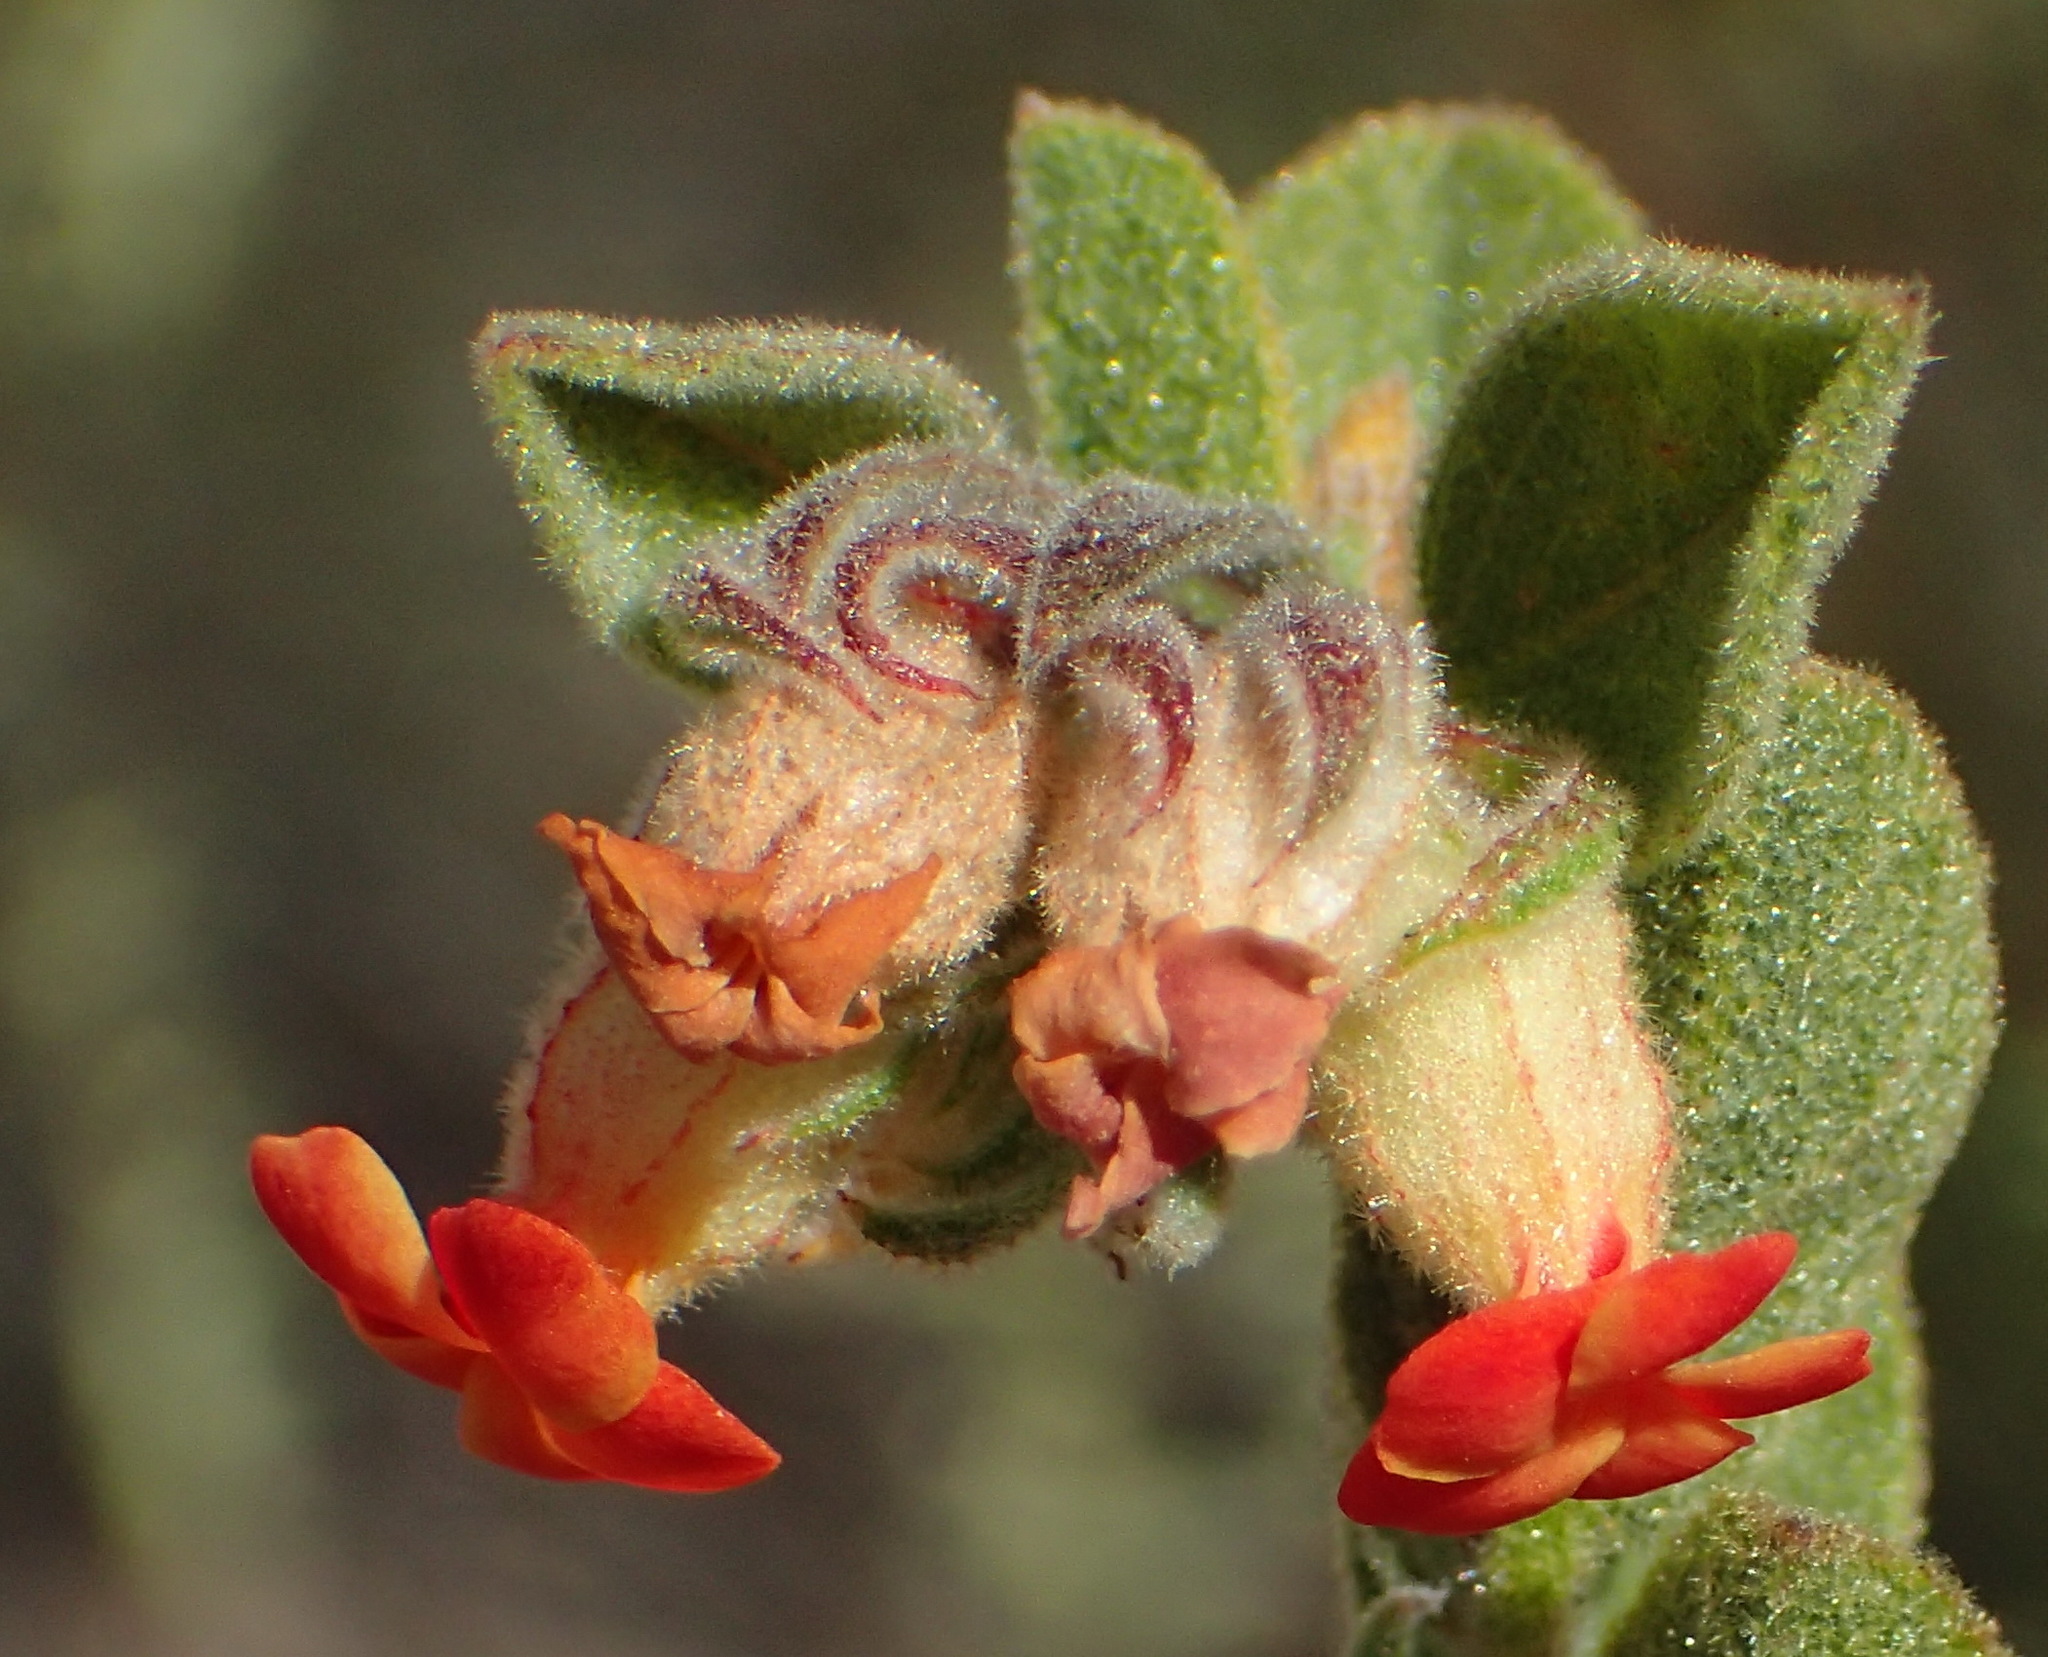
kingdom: Plantae
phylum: Tracheophyta
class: Magnoliopsida
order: Malvales
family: Malvaceae
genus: Hermannia
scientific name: Hermannia salviifolia
